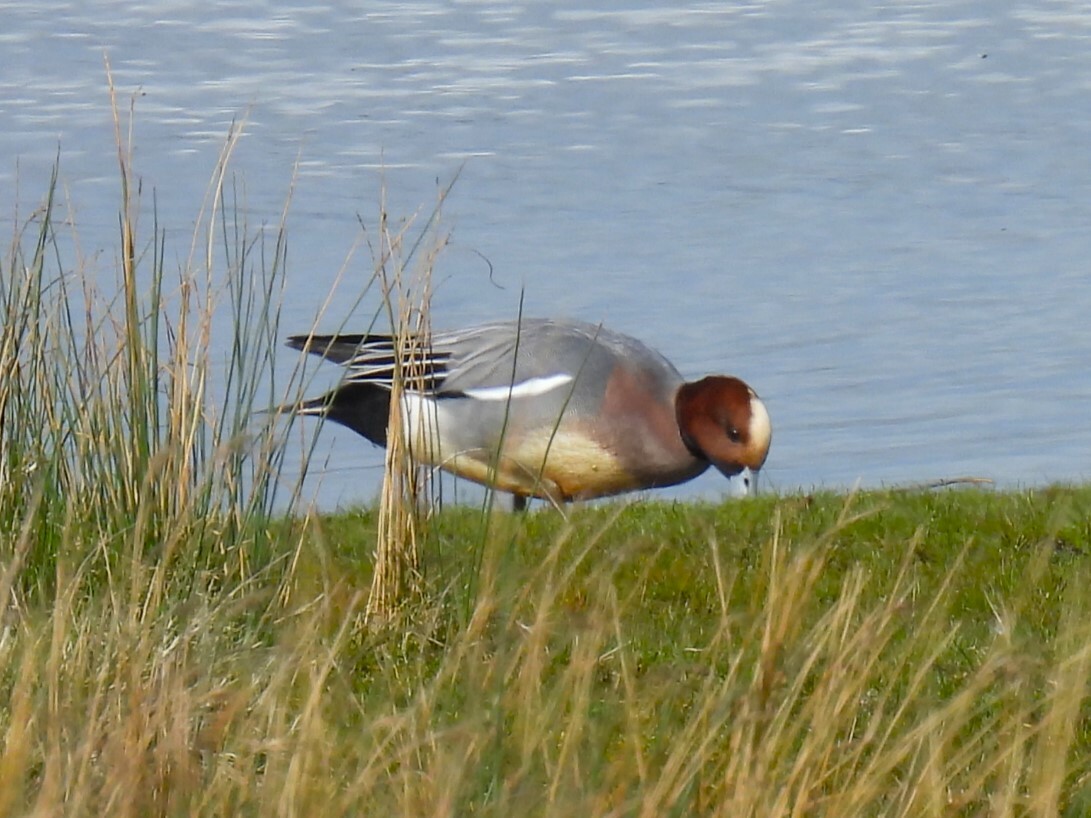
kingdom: Animalia
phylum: Chordata
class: Aves
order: Anseriformes
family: Anatidae
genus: Mareca
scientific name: Mareca penelope
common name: Eurasian wigeon
